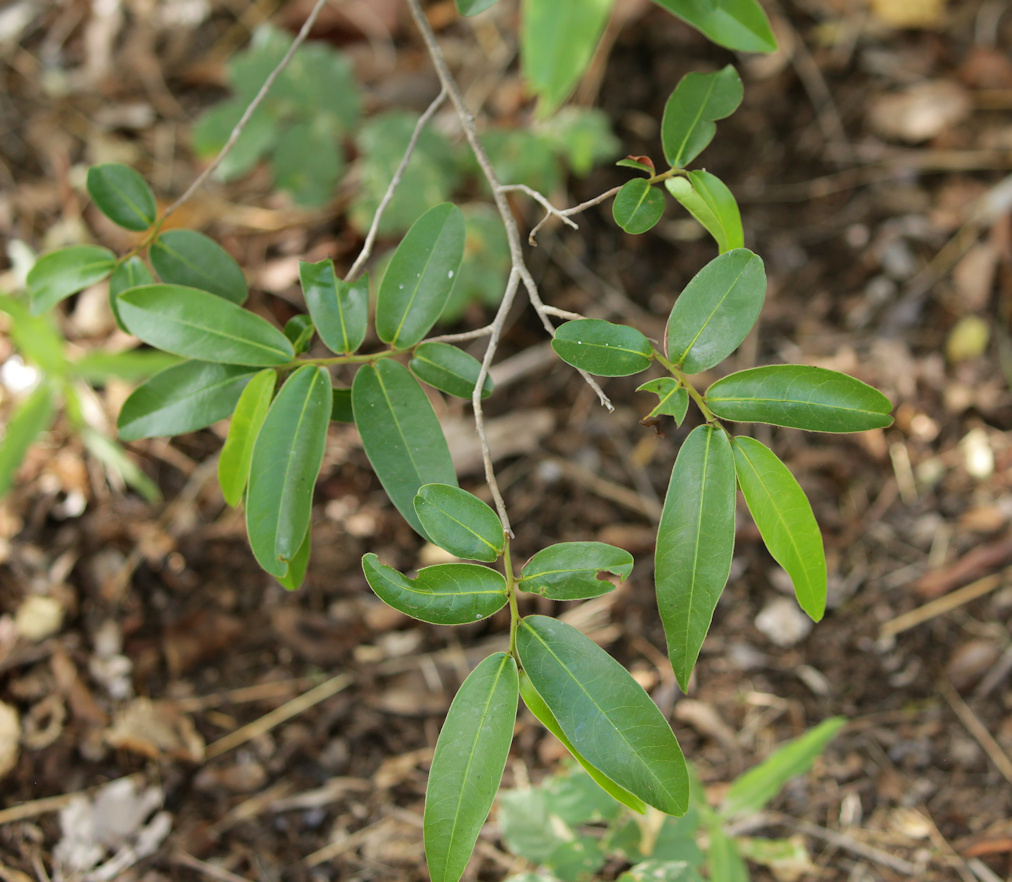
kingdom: Plantae
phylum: Tracheophyta
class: Magnoliopsida
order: Magnoliales
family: Annonaceae
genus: Hexalobus
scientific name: Hexalobus monopetalus
